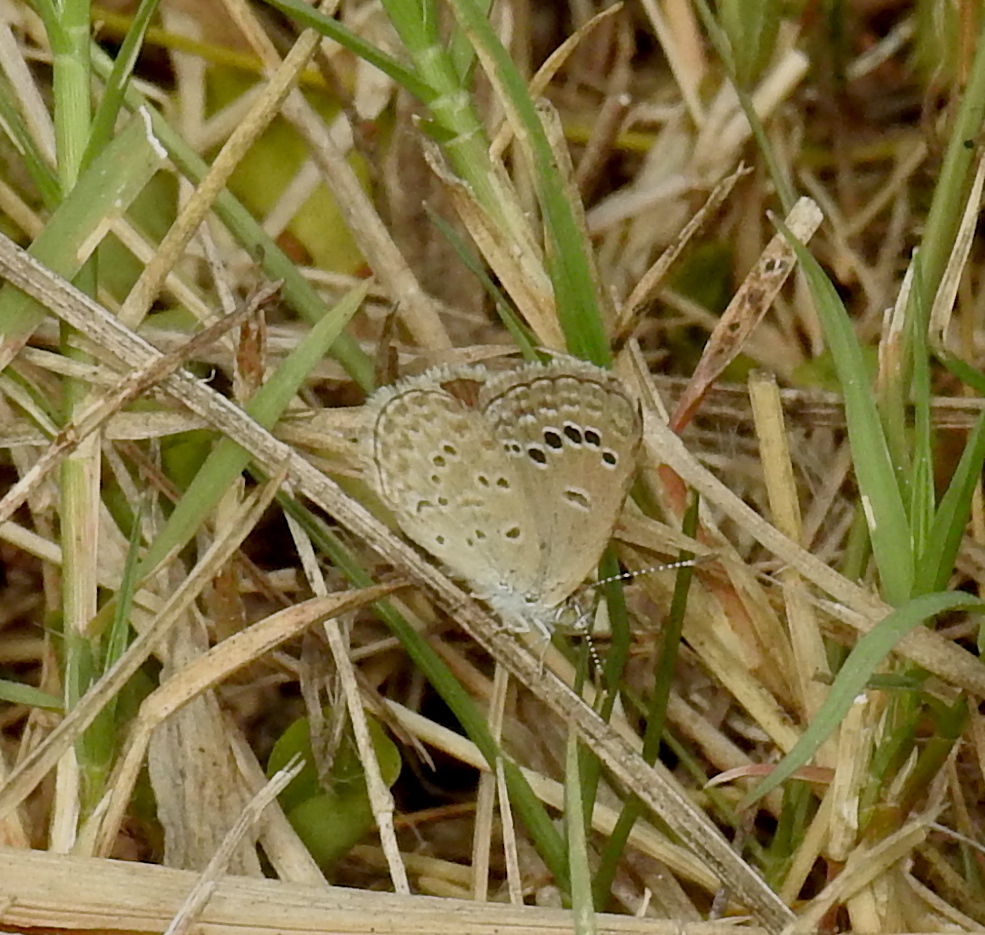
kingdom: Animalia
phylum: Arthropoda
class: Insecta
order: Lepidoptera
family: Lycaenidae
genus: Zizina
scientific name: Zizina otis
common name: Lesser grass blue
